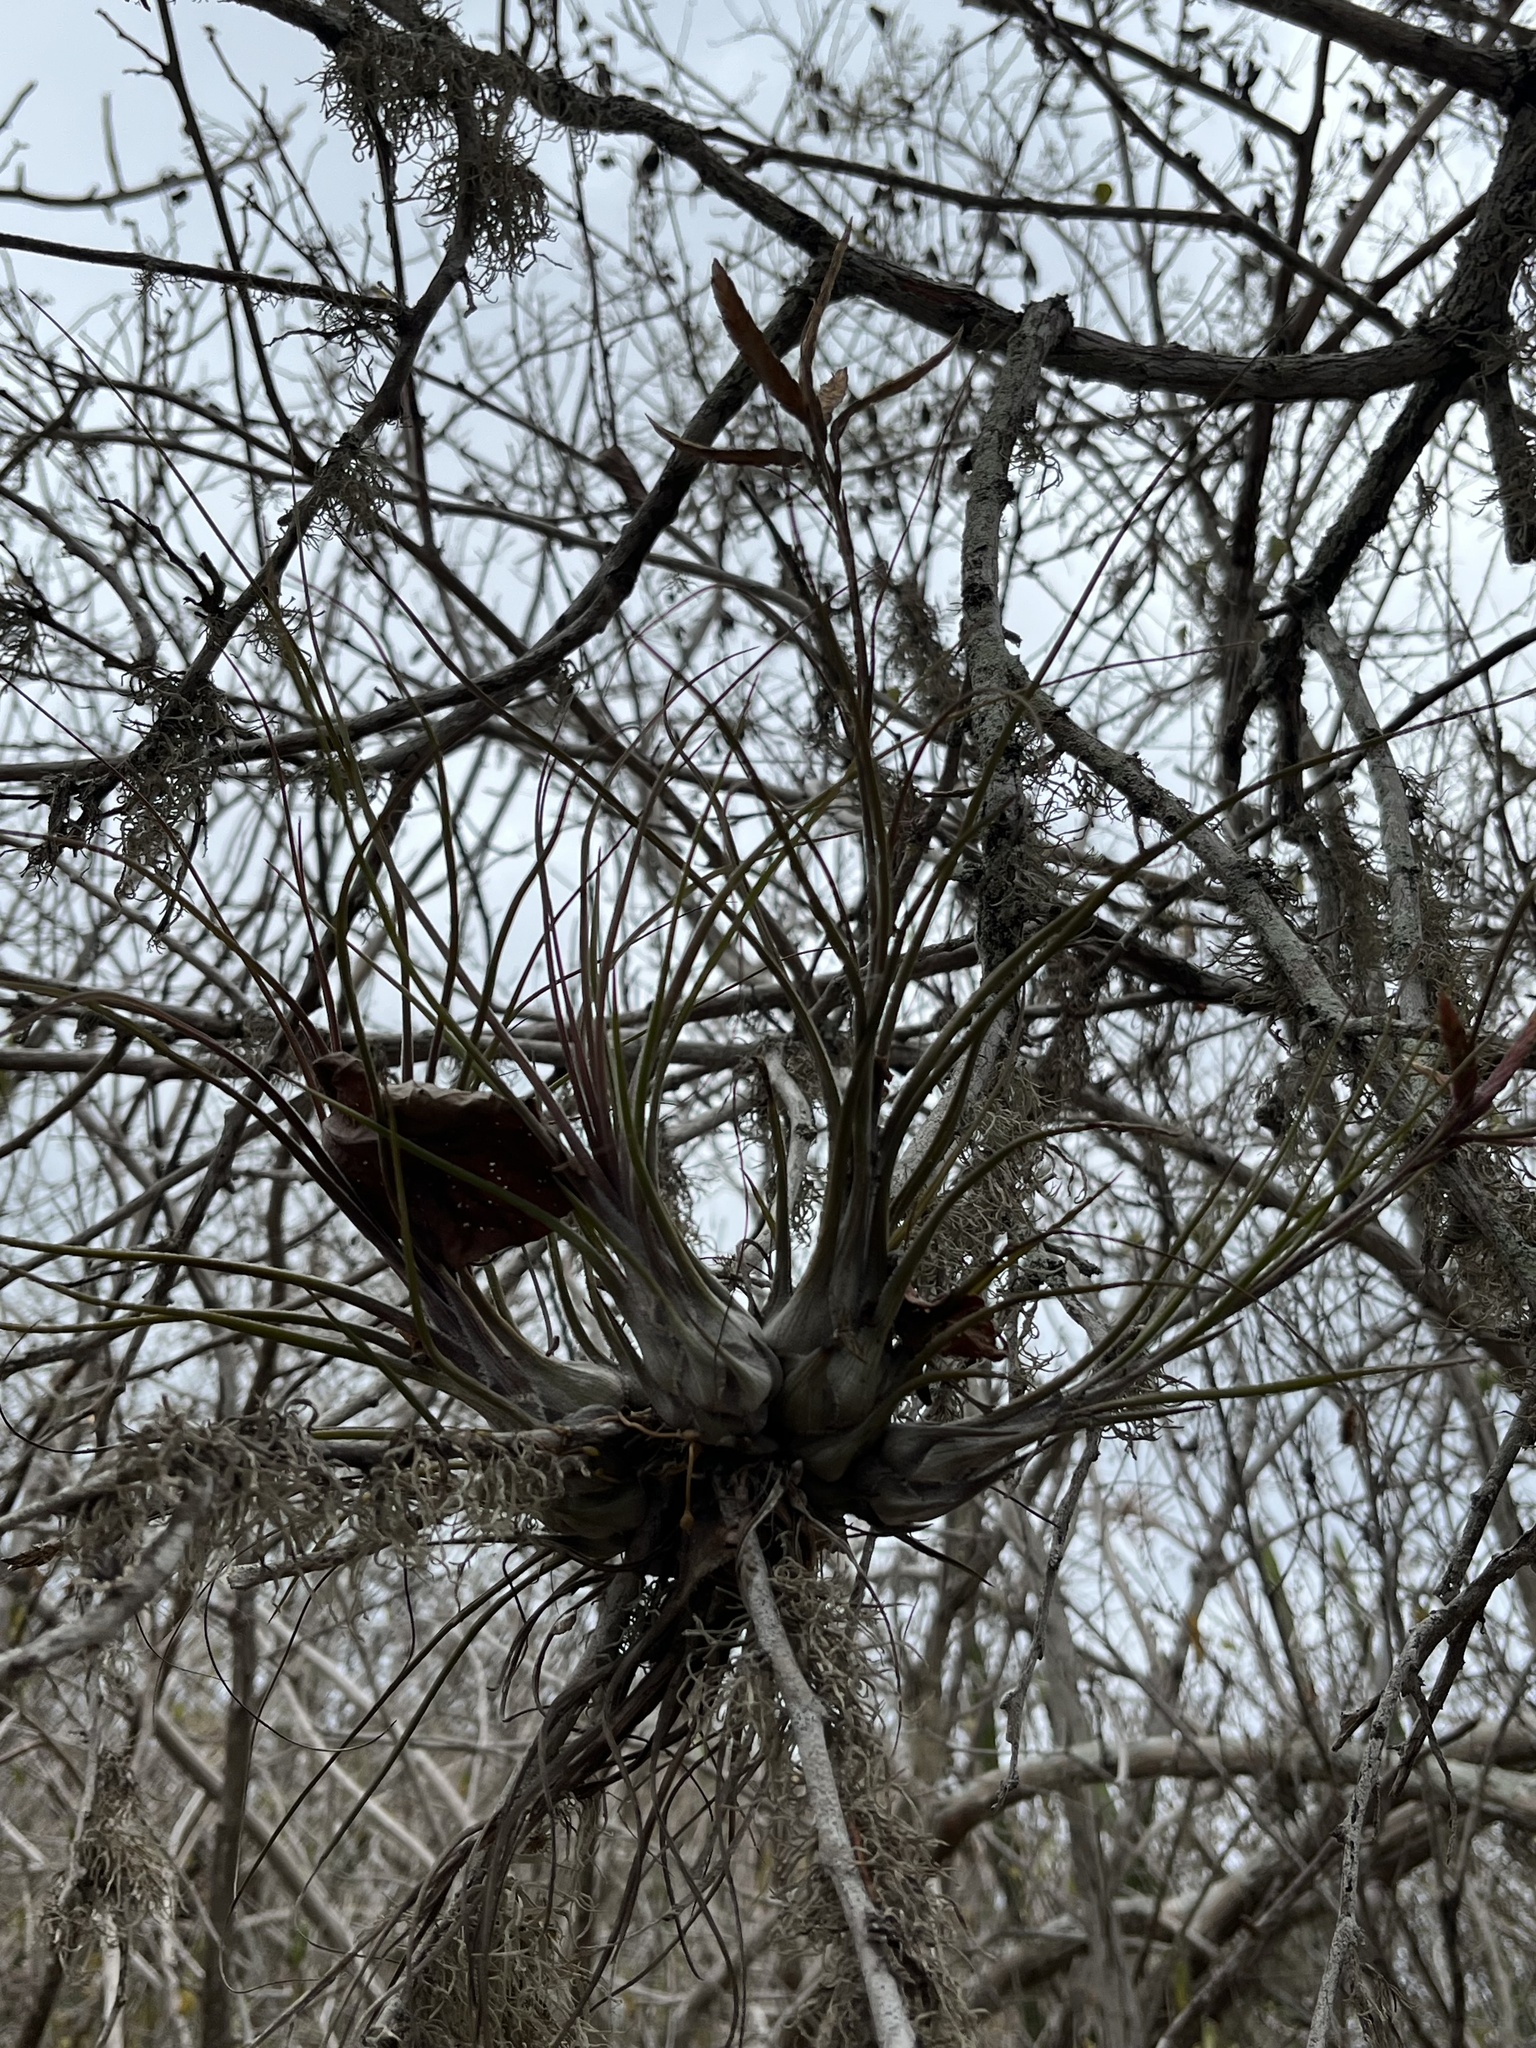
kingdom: Plantae
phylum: Tracheophyta
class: Liliopsida
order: Poales
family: Bromeliaceae
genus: Tillandsia
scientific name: Tillandsia disticha
